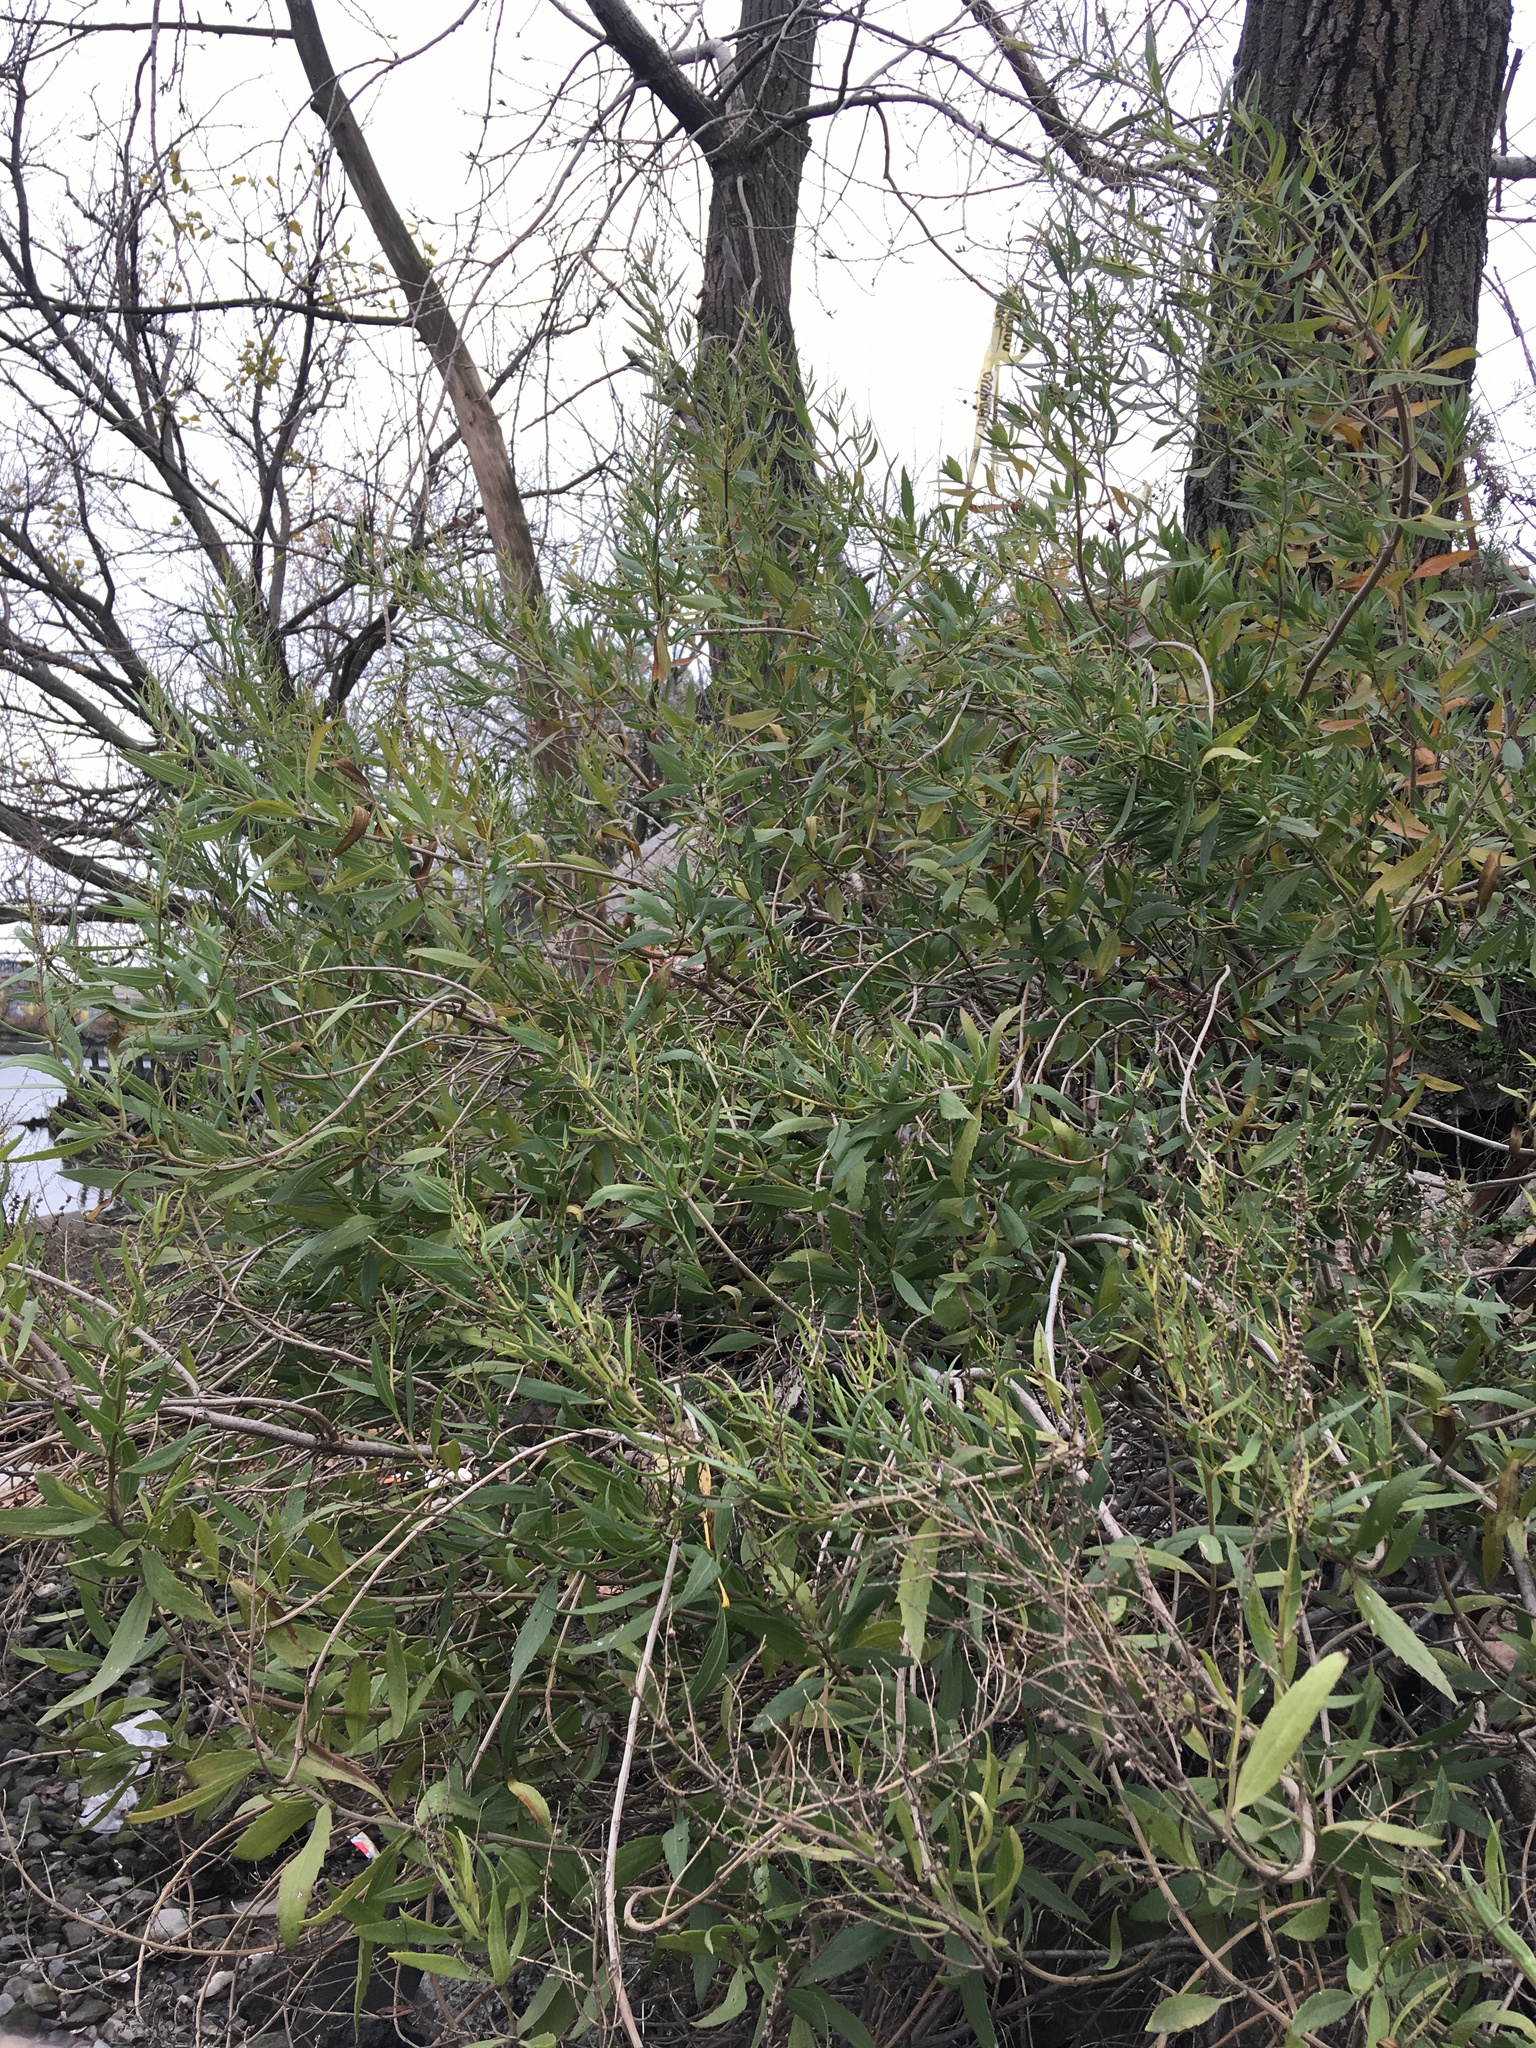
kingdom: Plantae
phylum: Tracheophyta
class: Magnoliopsida
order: Asterales
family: Asteraceae
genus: Iva
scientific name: Iva frutescens
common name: Big-leaved marsh-elder
